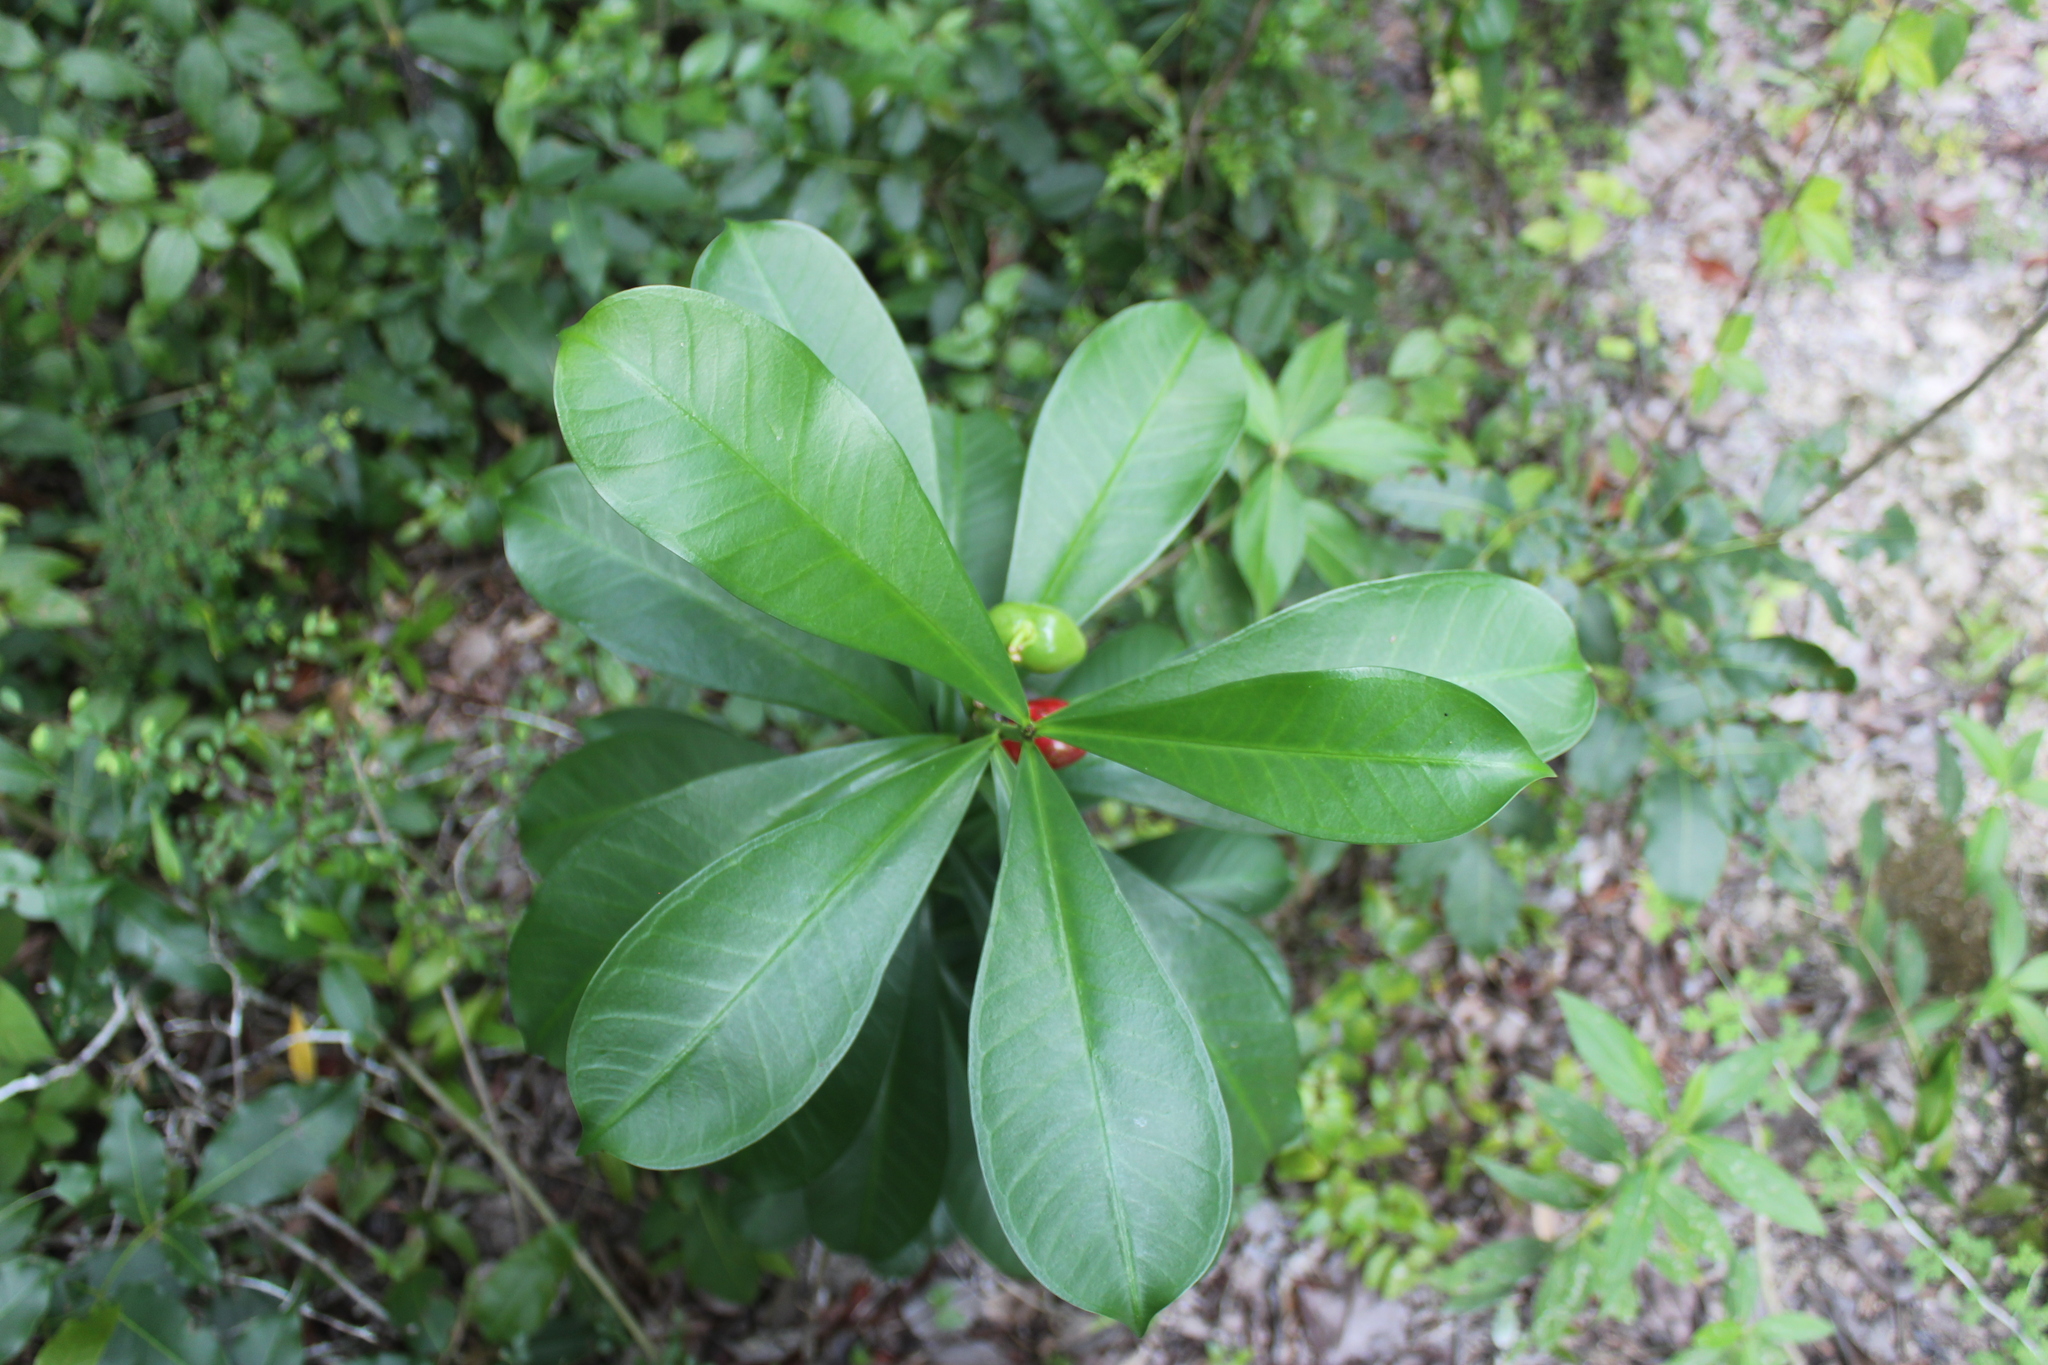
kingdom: Plantae
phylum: Tracheophyta
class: Magnoliopsida
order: Gentianales
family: Apocynaceae
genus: Thevetia
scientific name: Thevetia ahouai
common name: Broadleaf thevetia
